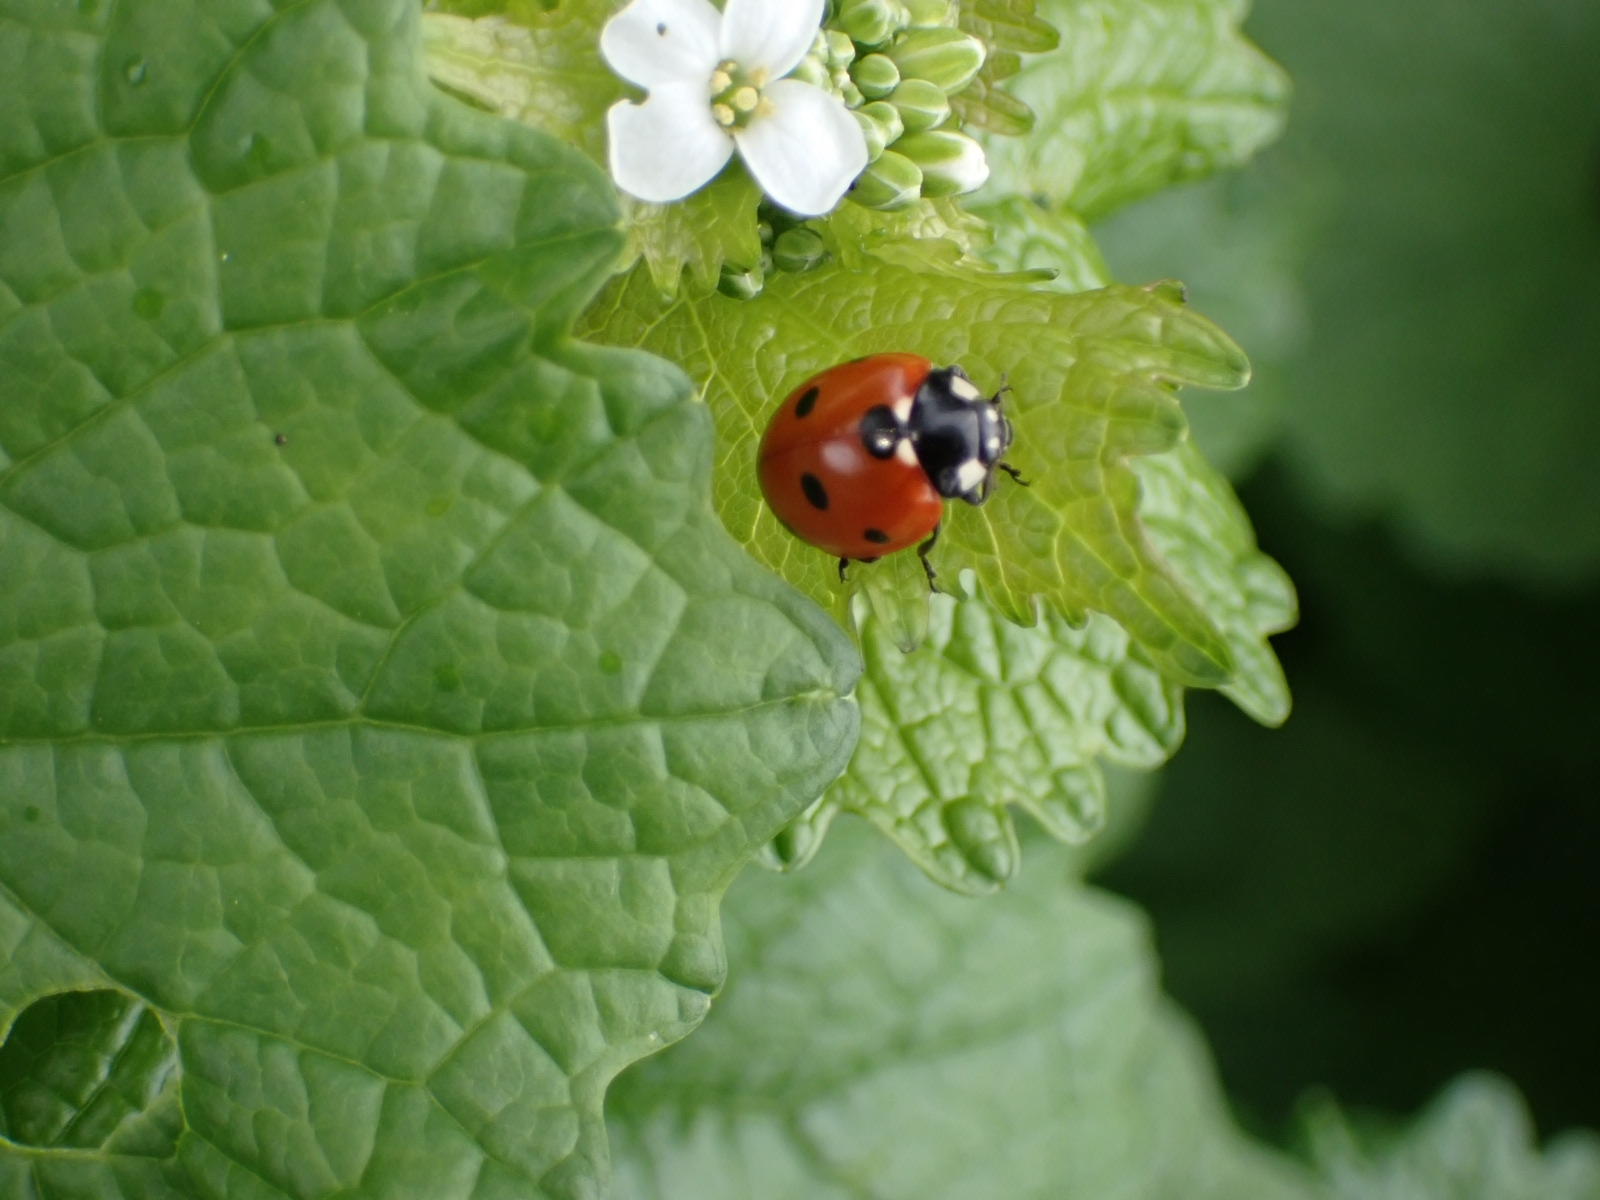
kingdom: Animalia
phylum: Arthropoda
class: Insecta
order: Coleoptera
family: Coccinellidae
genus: Coccinella
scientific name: Coccinella septempunctata
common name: Sevenspotted lady beetle
